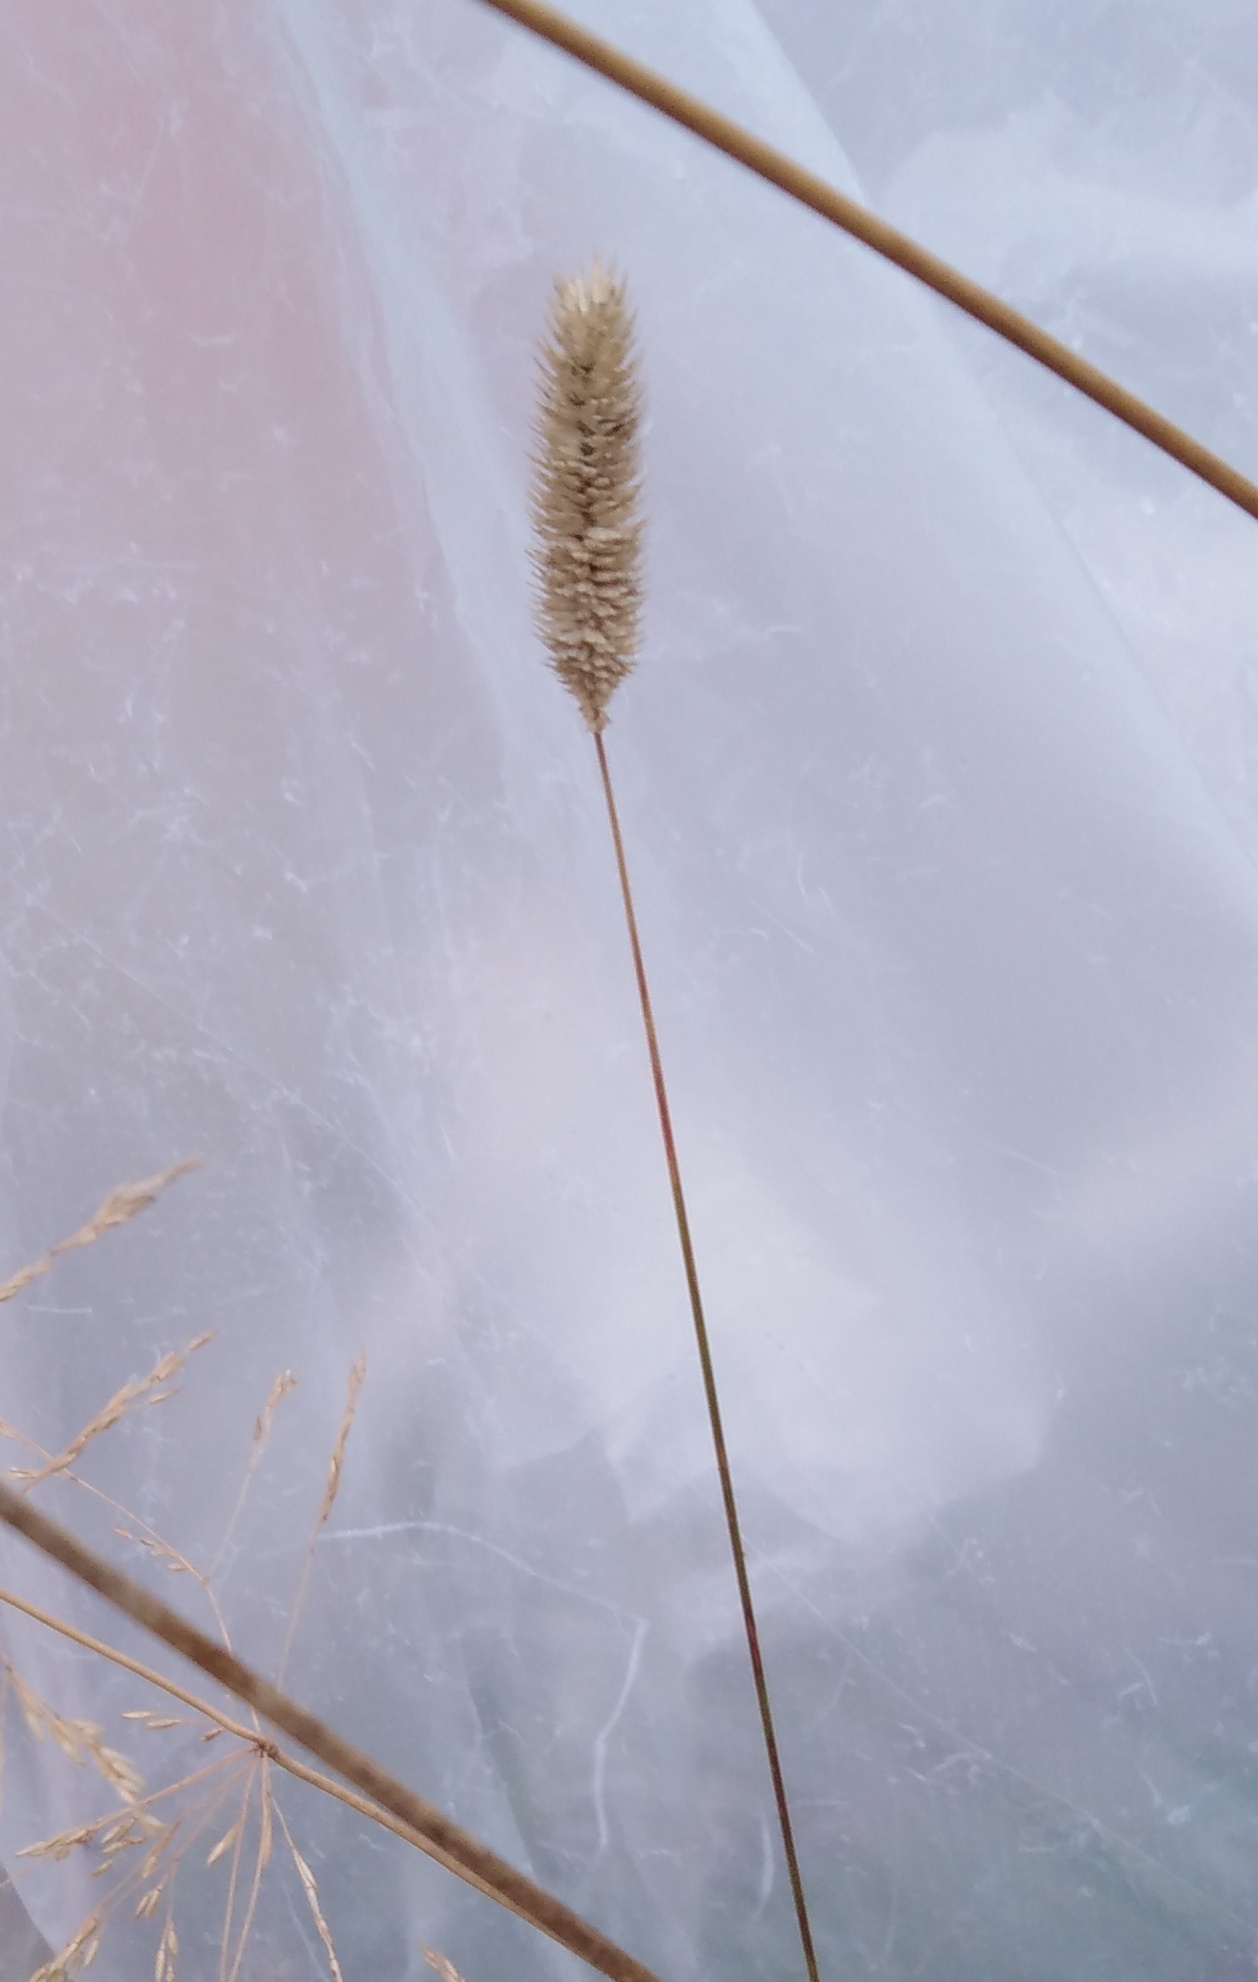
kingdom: Plantae
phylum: Tracheophyta
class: Liliopsida
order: Poales
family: Poaceae
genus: Phleum
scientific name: Phleum pratense
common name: Timothy grass
